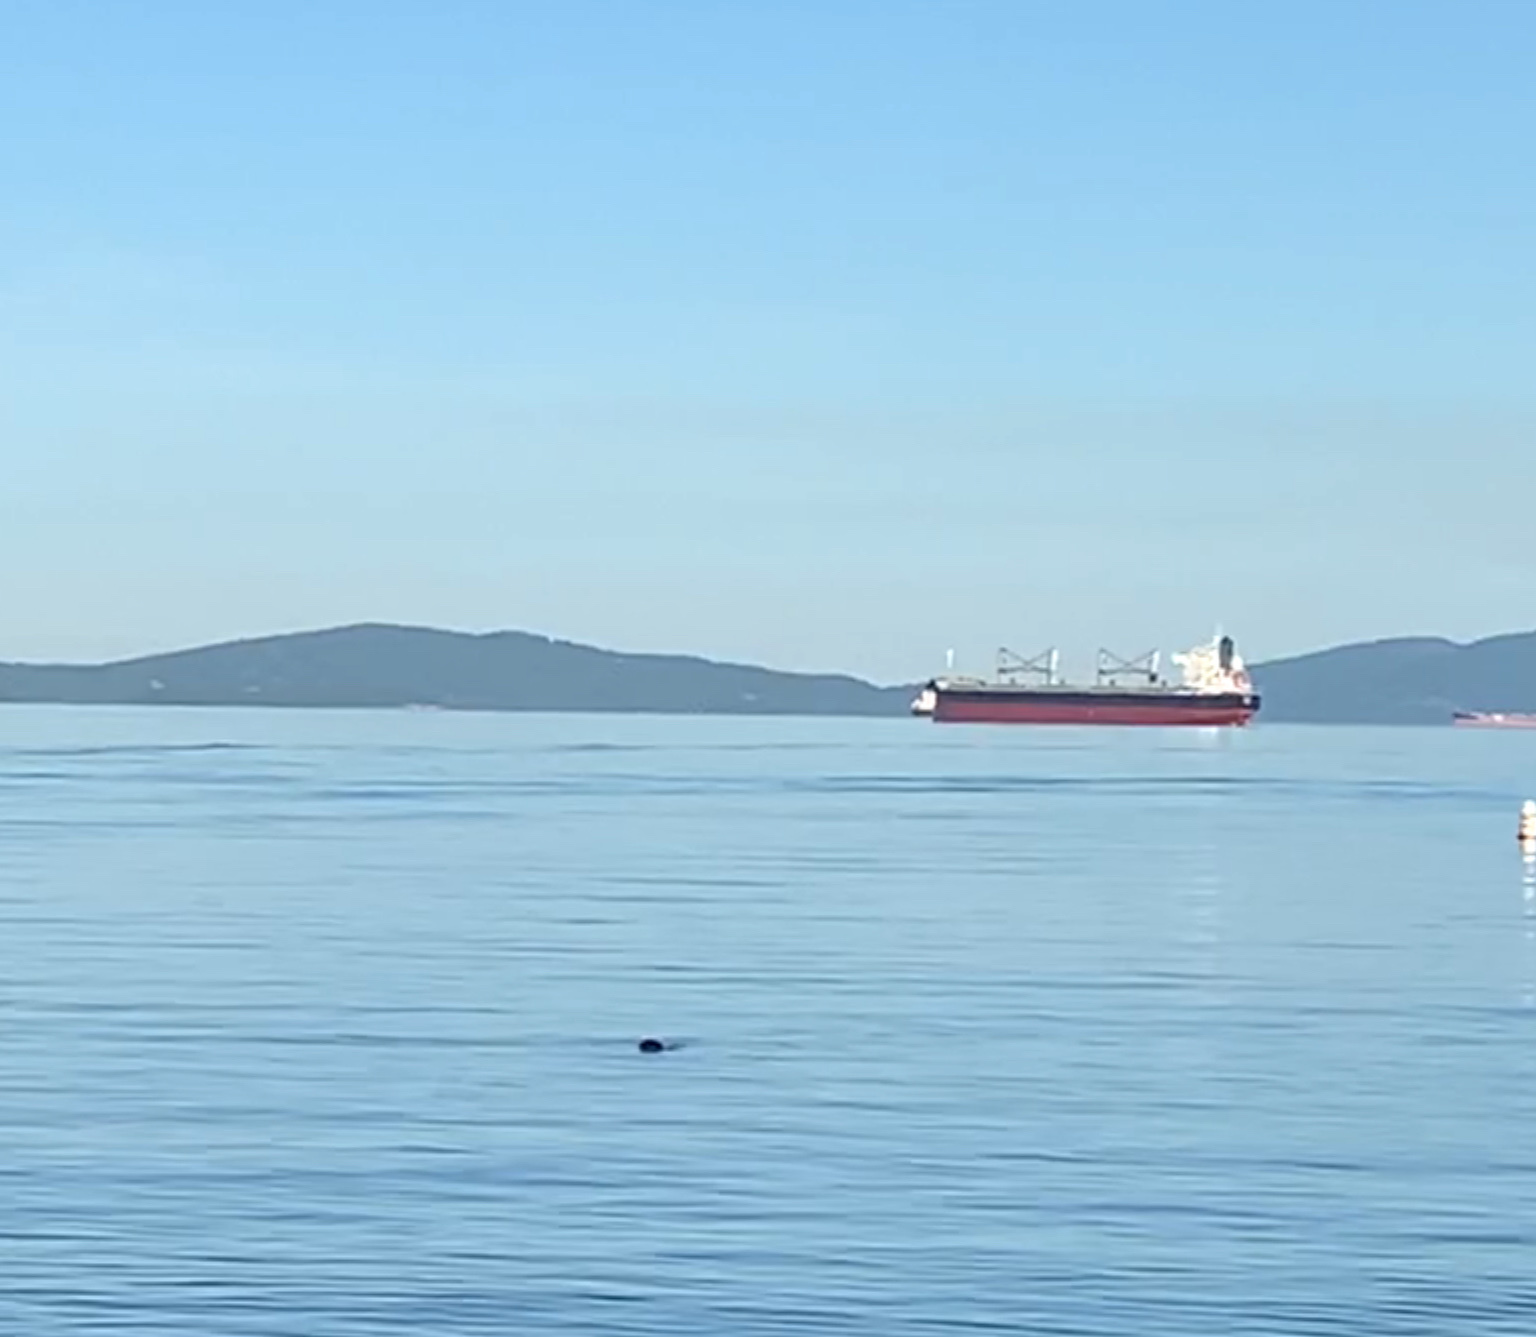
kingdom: Animalia
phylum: Chordata
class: Mammalia
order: Carnivora
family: Phocidae
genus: Phoca
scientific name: Phoca vitulina
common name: Harbor seal
